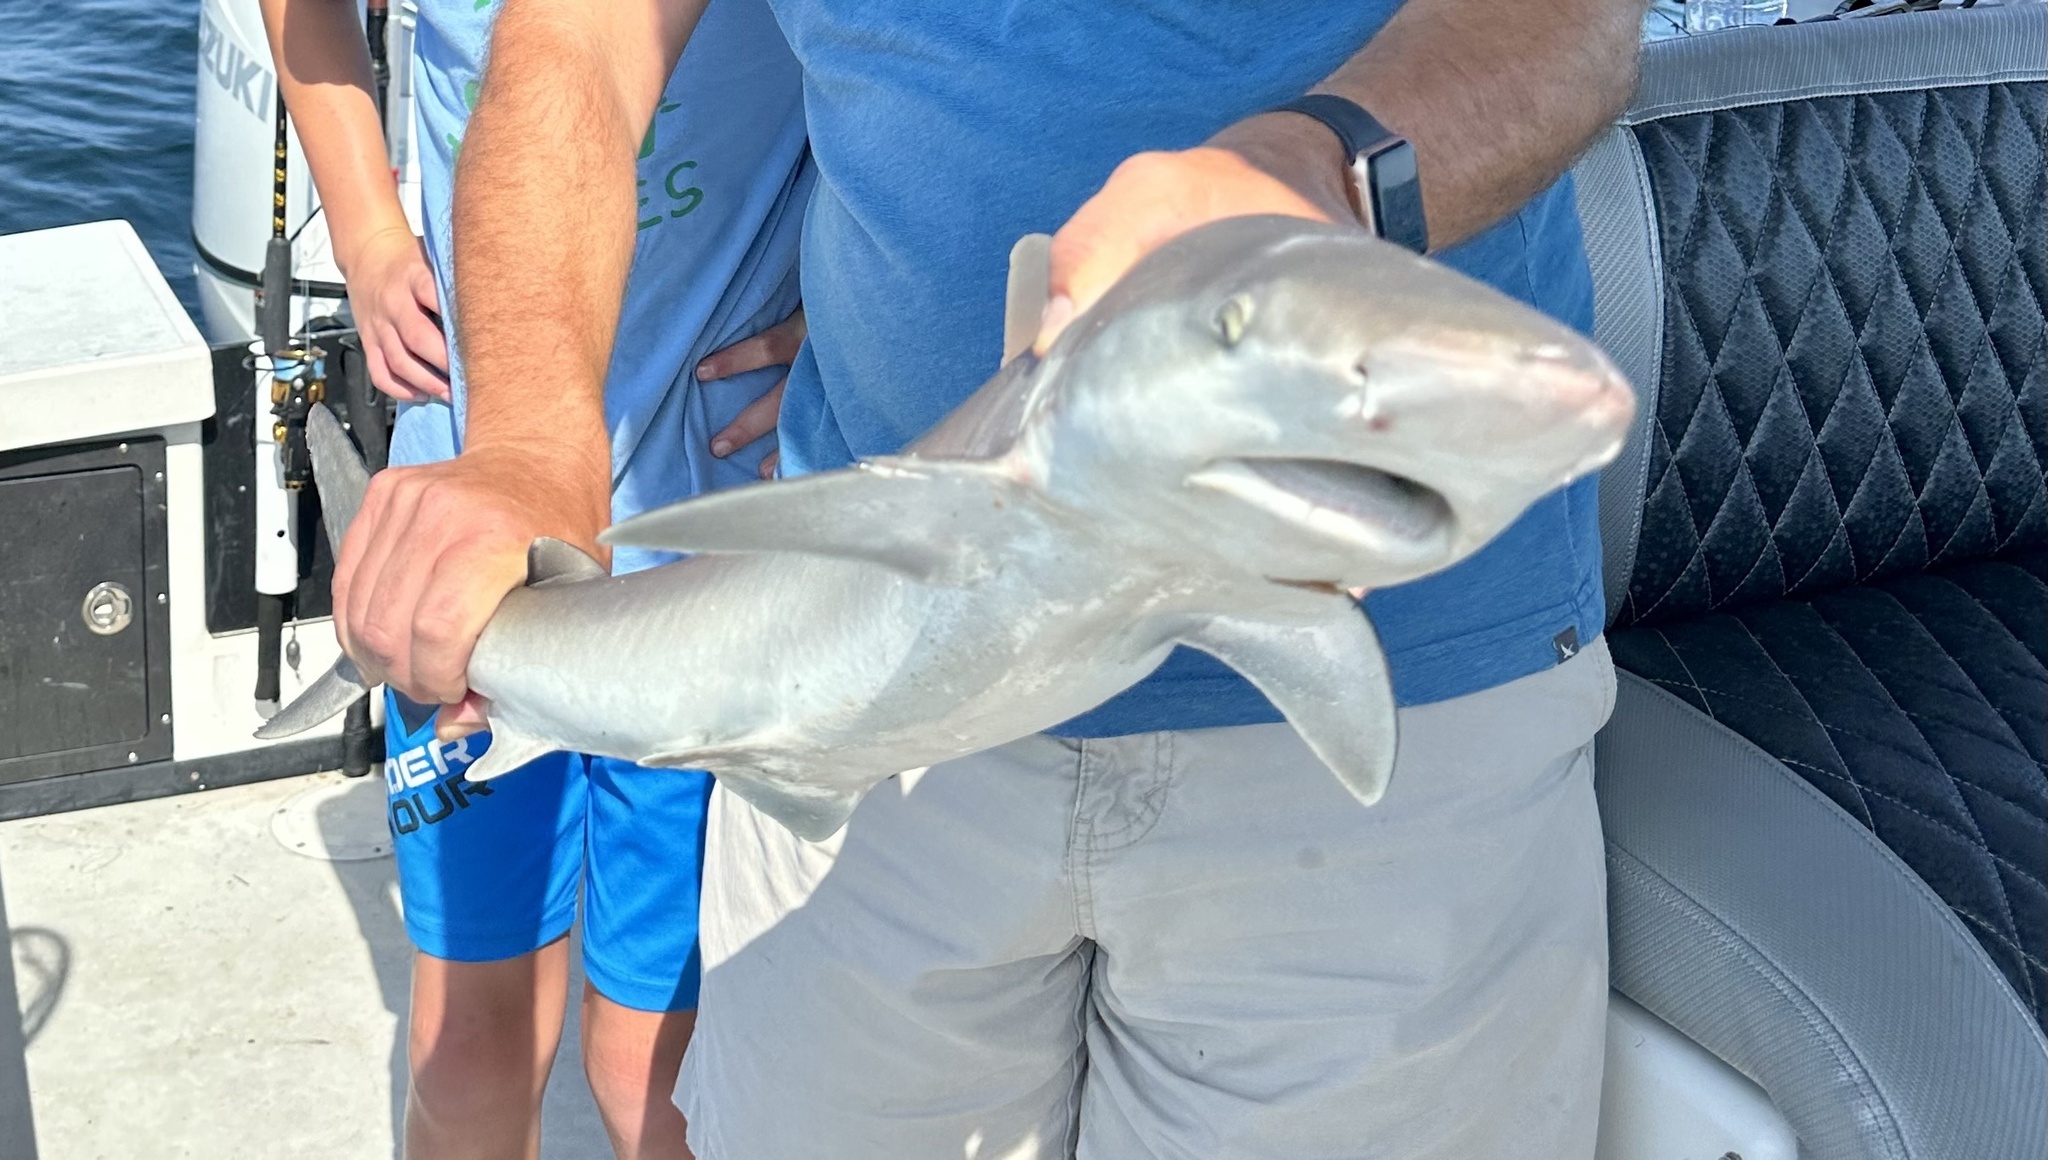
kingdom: Animalia
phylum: Chordata
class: Elasmobranchii
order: Carcharhiniformes
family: Carcharhinidae
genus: Carcharhinus
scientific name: Carcharhinus acronotus
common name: Blacknose shark
